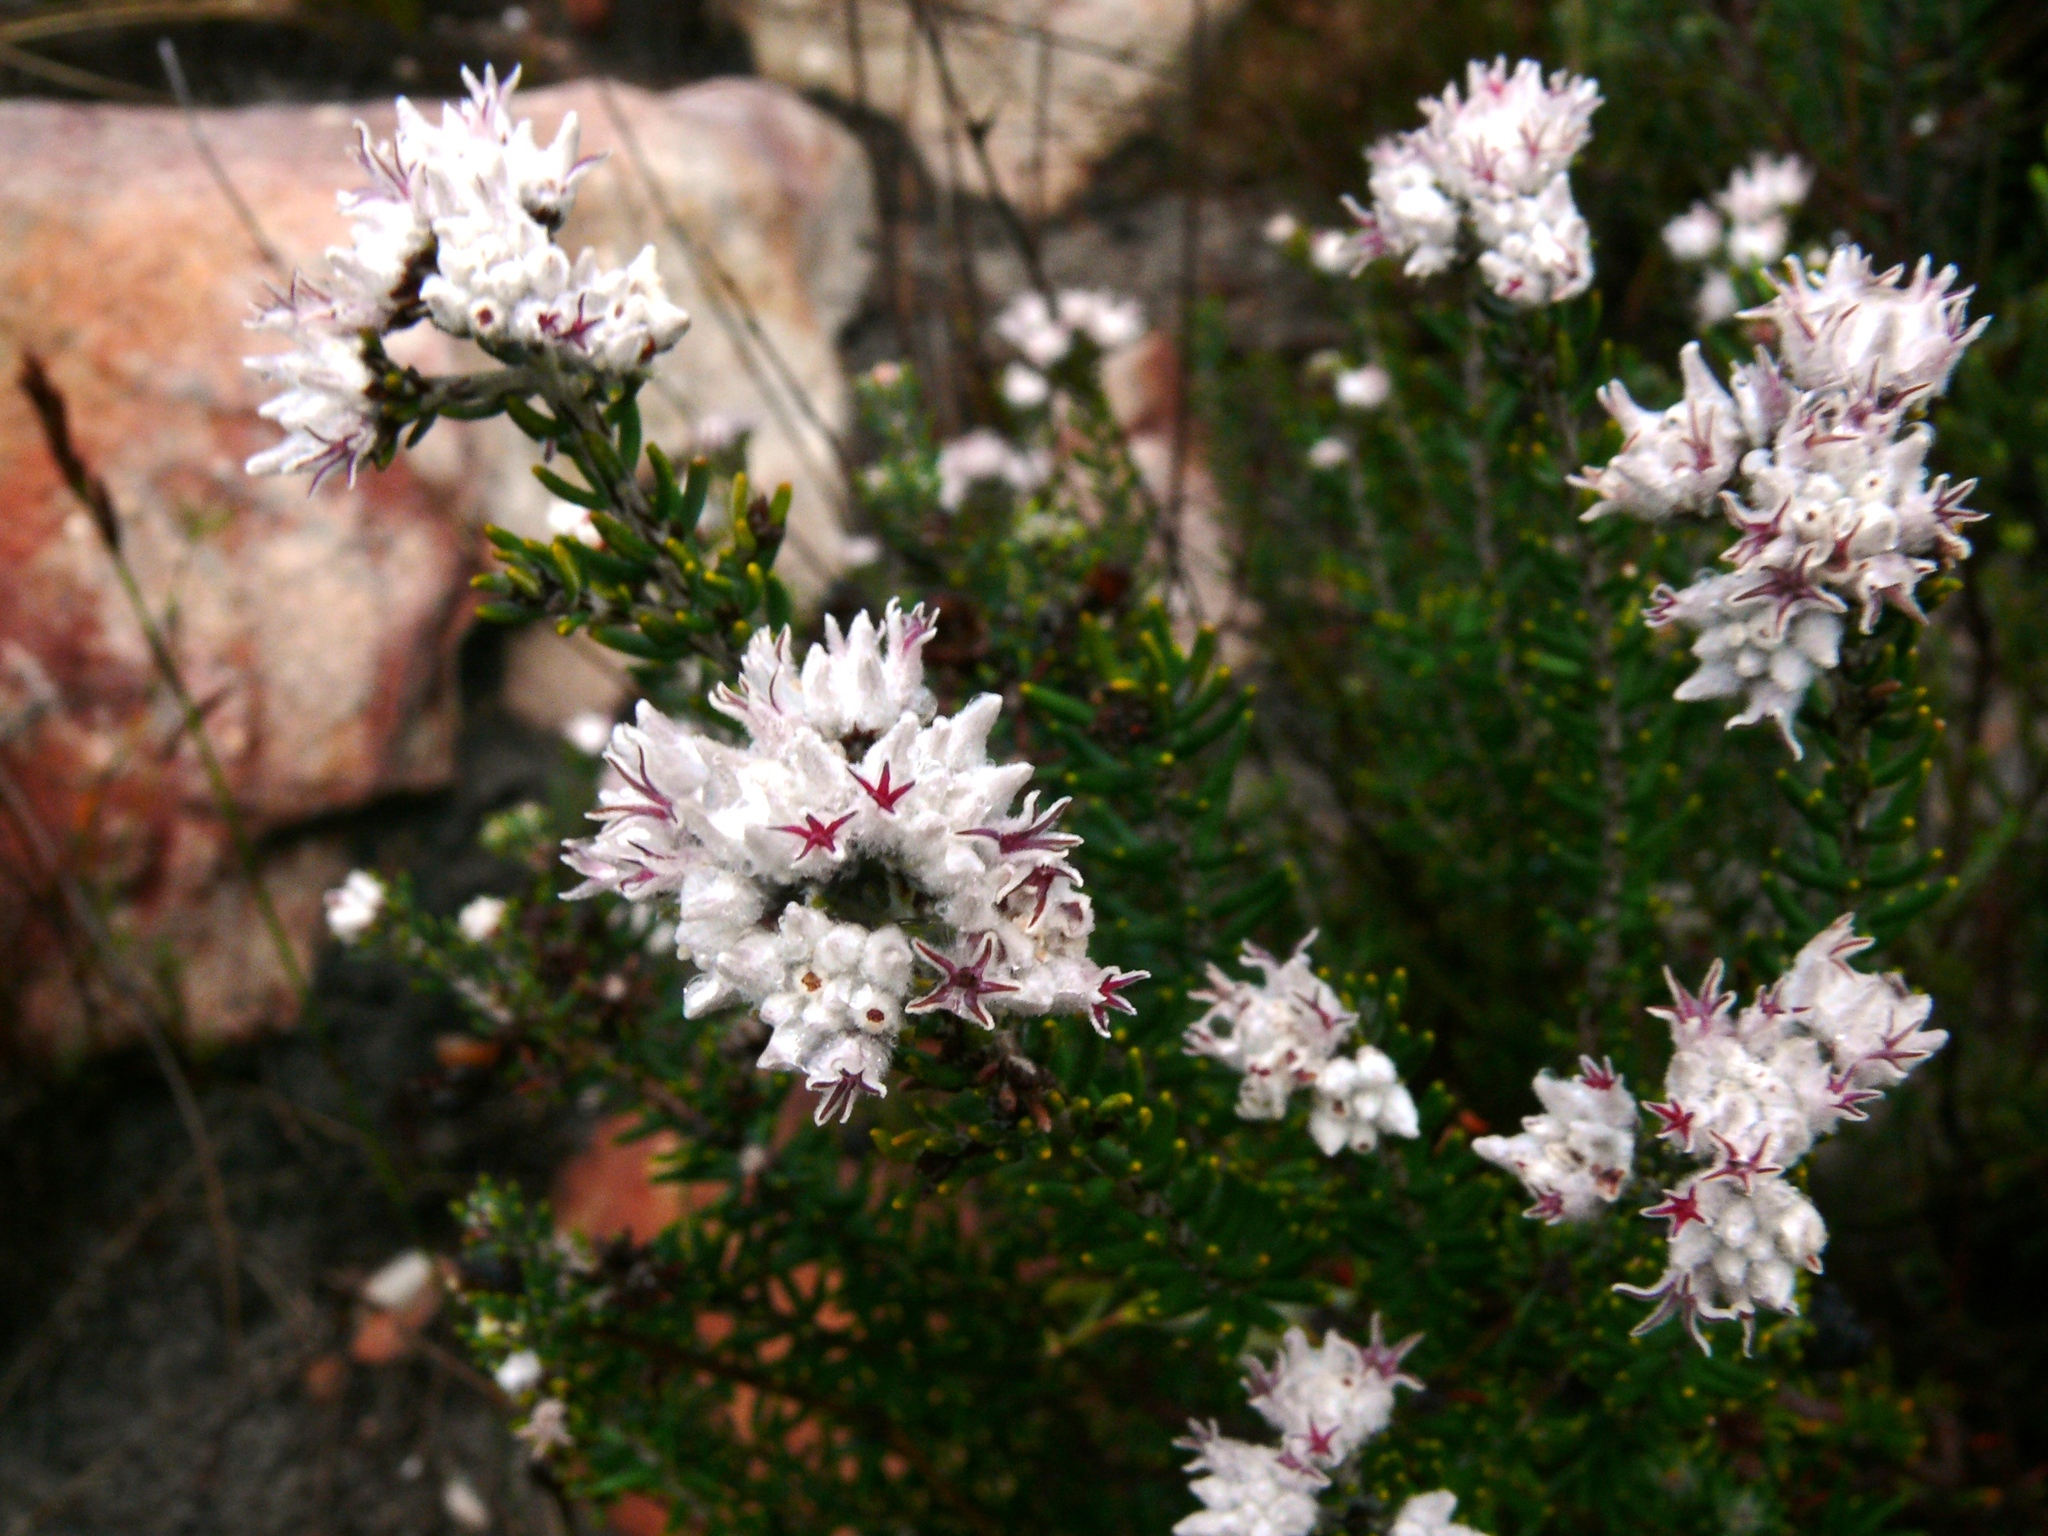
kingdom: Plantae
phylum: Tracheophyta
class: Magnoliopsida
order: Rosales
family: Rhamnaceae
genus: Trichocephalus
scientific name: Trichocephalus stipularis
